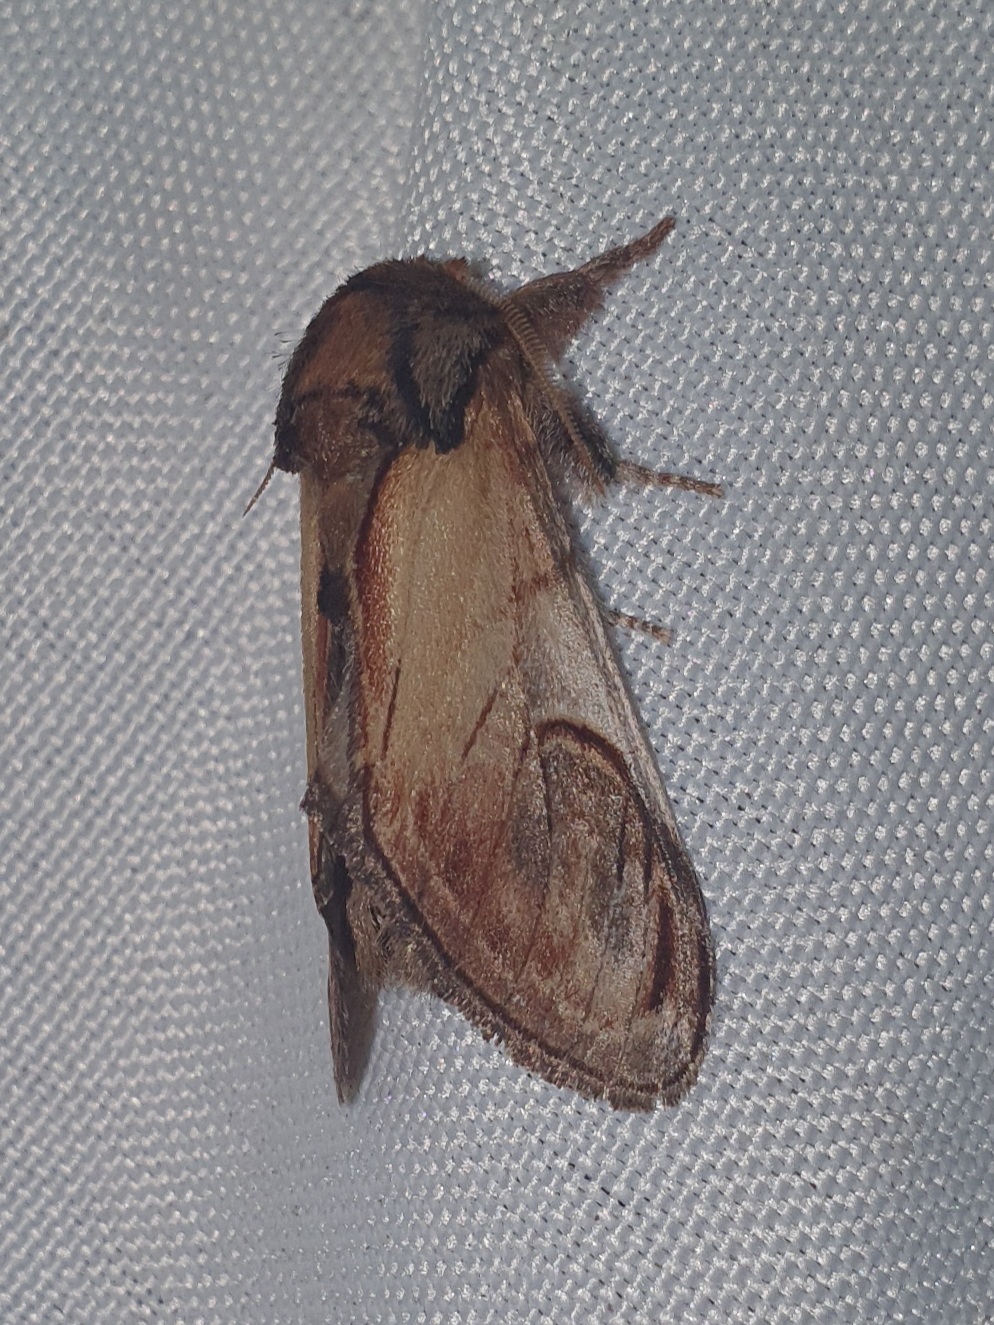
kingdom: Animalia
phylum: Arthropoda
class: Insecta
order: Lepidoptera
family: Notodontidae
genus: Notodonta
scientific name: Notodonta ziczac
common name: Pebble prominent
